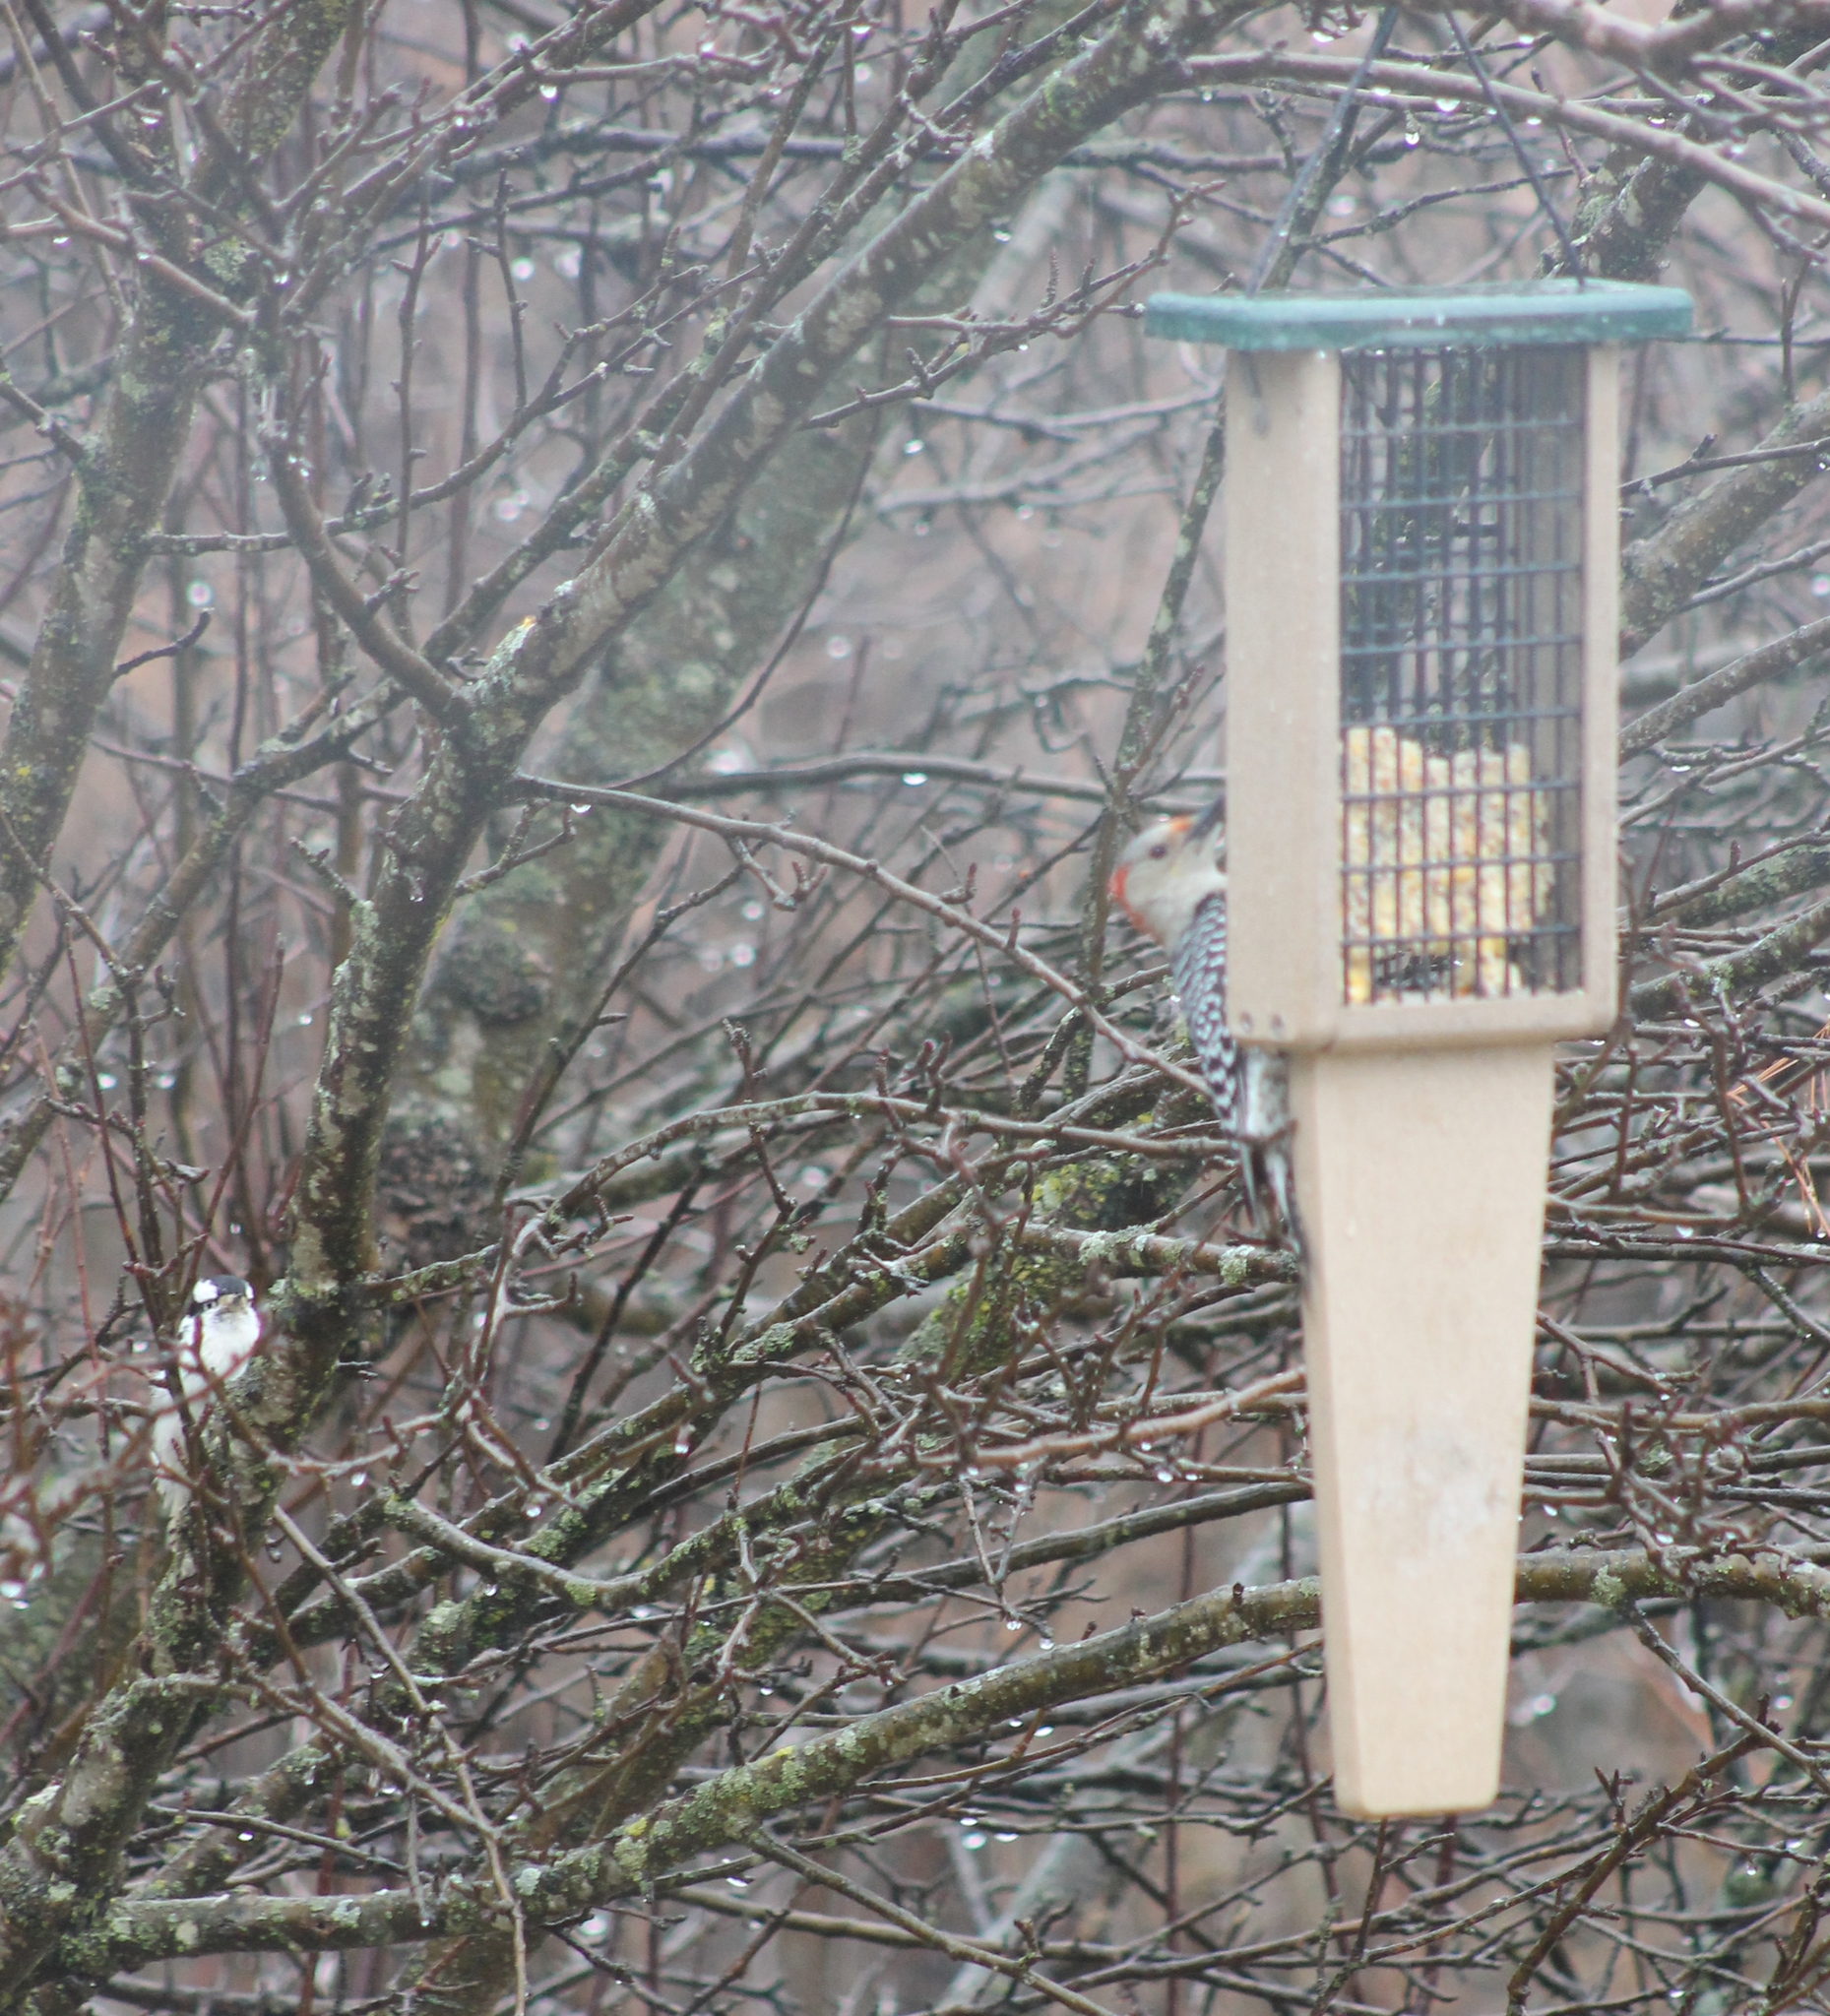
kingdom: Animalia
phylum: Chordata
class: Aves
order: Piciformes
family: Picidae
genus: Melanerpes
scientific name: Melanerpes carolinus
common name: Red-bellied woodpecker
